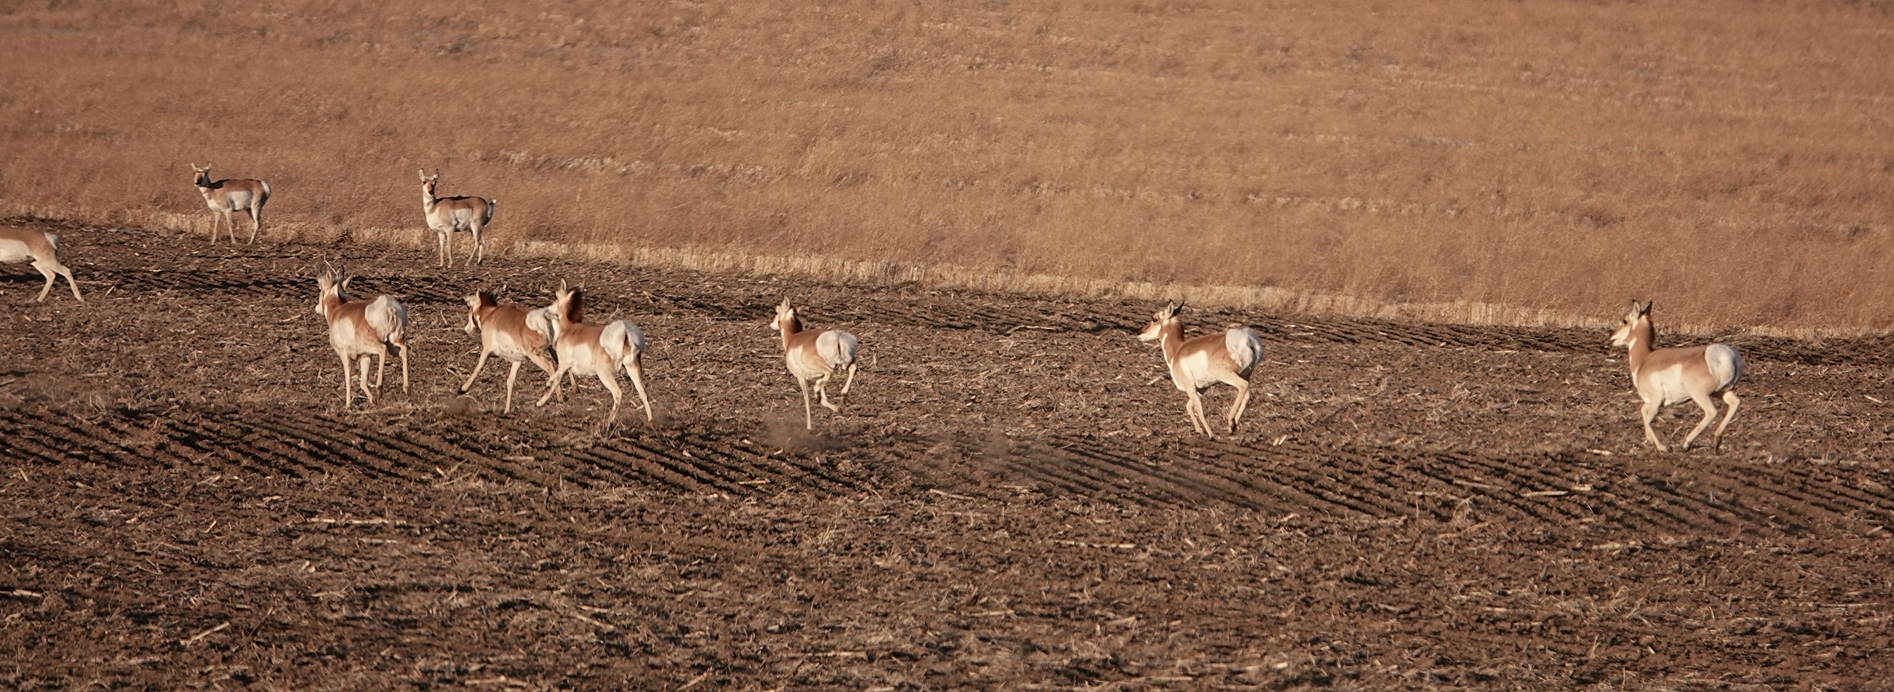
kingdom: Animalia
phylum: Chordata
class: Mammalia
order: Artiodactyla
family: Antilocapridae
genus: Antilocapra
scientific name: Antilocapra americana
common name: Pronghorn
